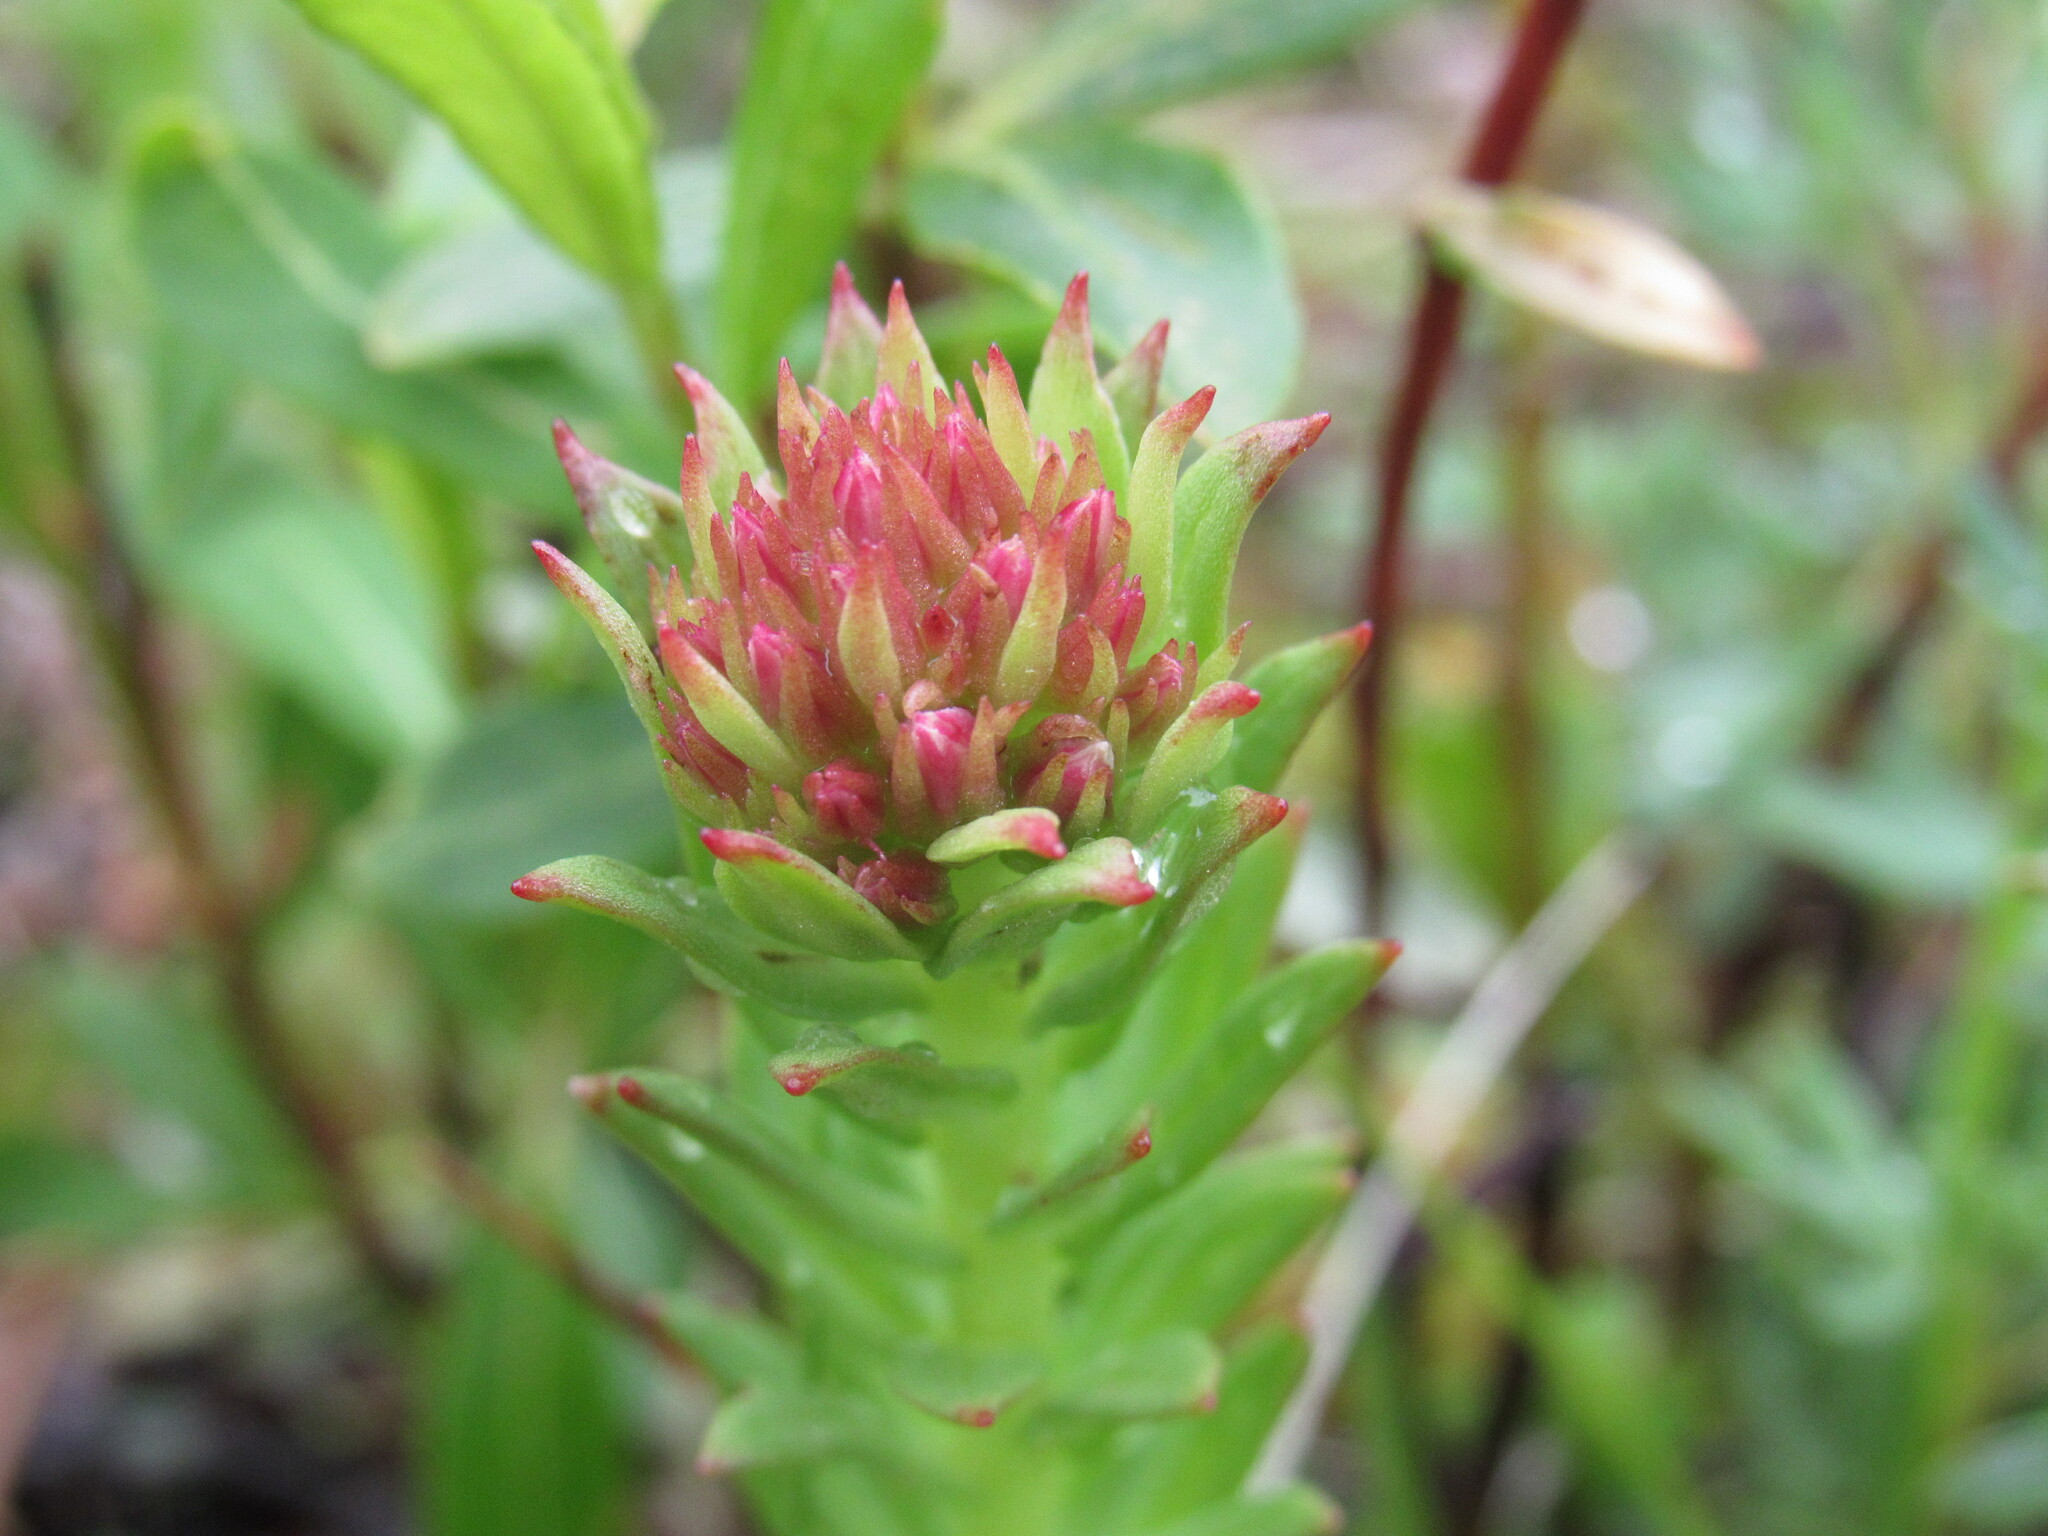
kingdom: Plantae
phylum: Tracheophyta
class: Magnoliopsida
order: Saxifragales
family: Crassulaceae
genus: Rhodiola
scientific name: Rhodiola rhodantha
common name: Red orpine
